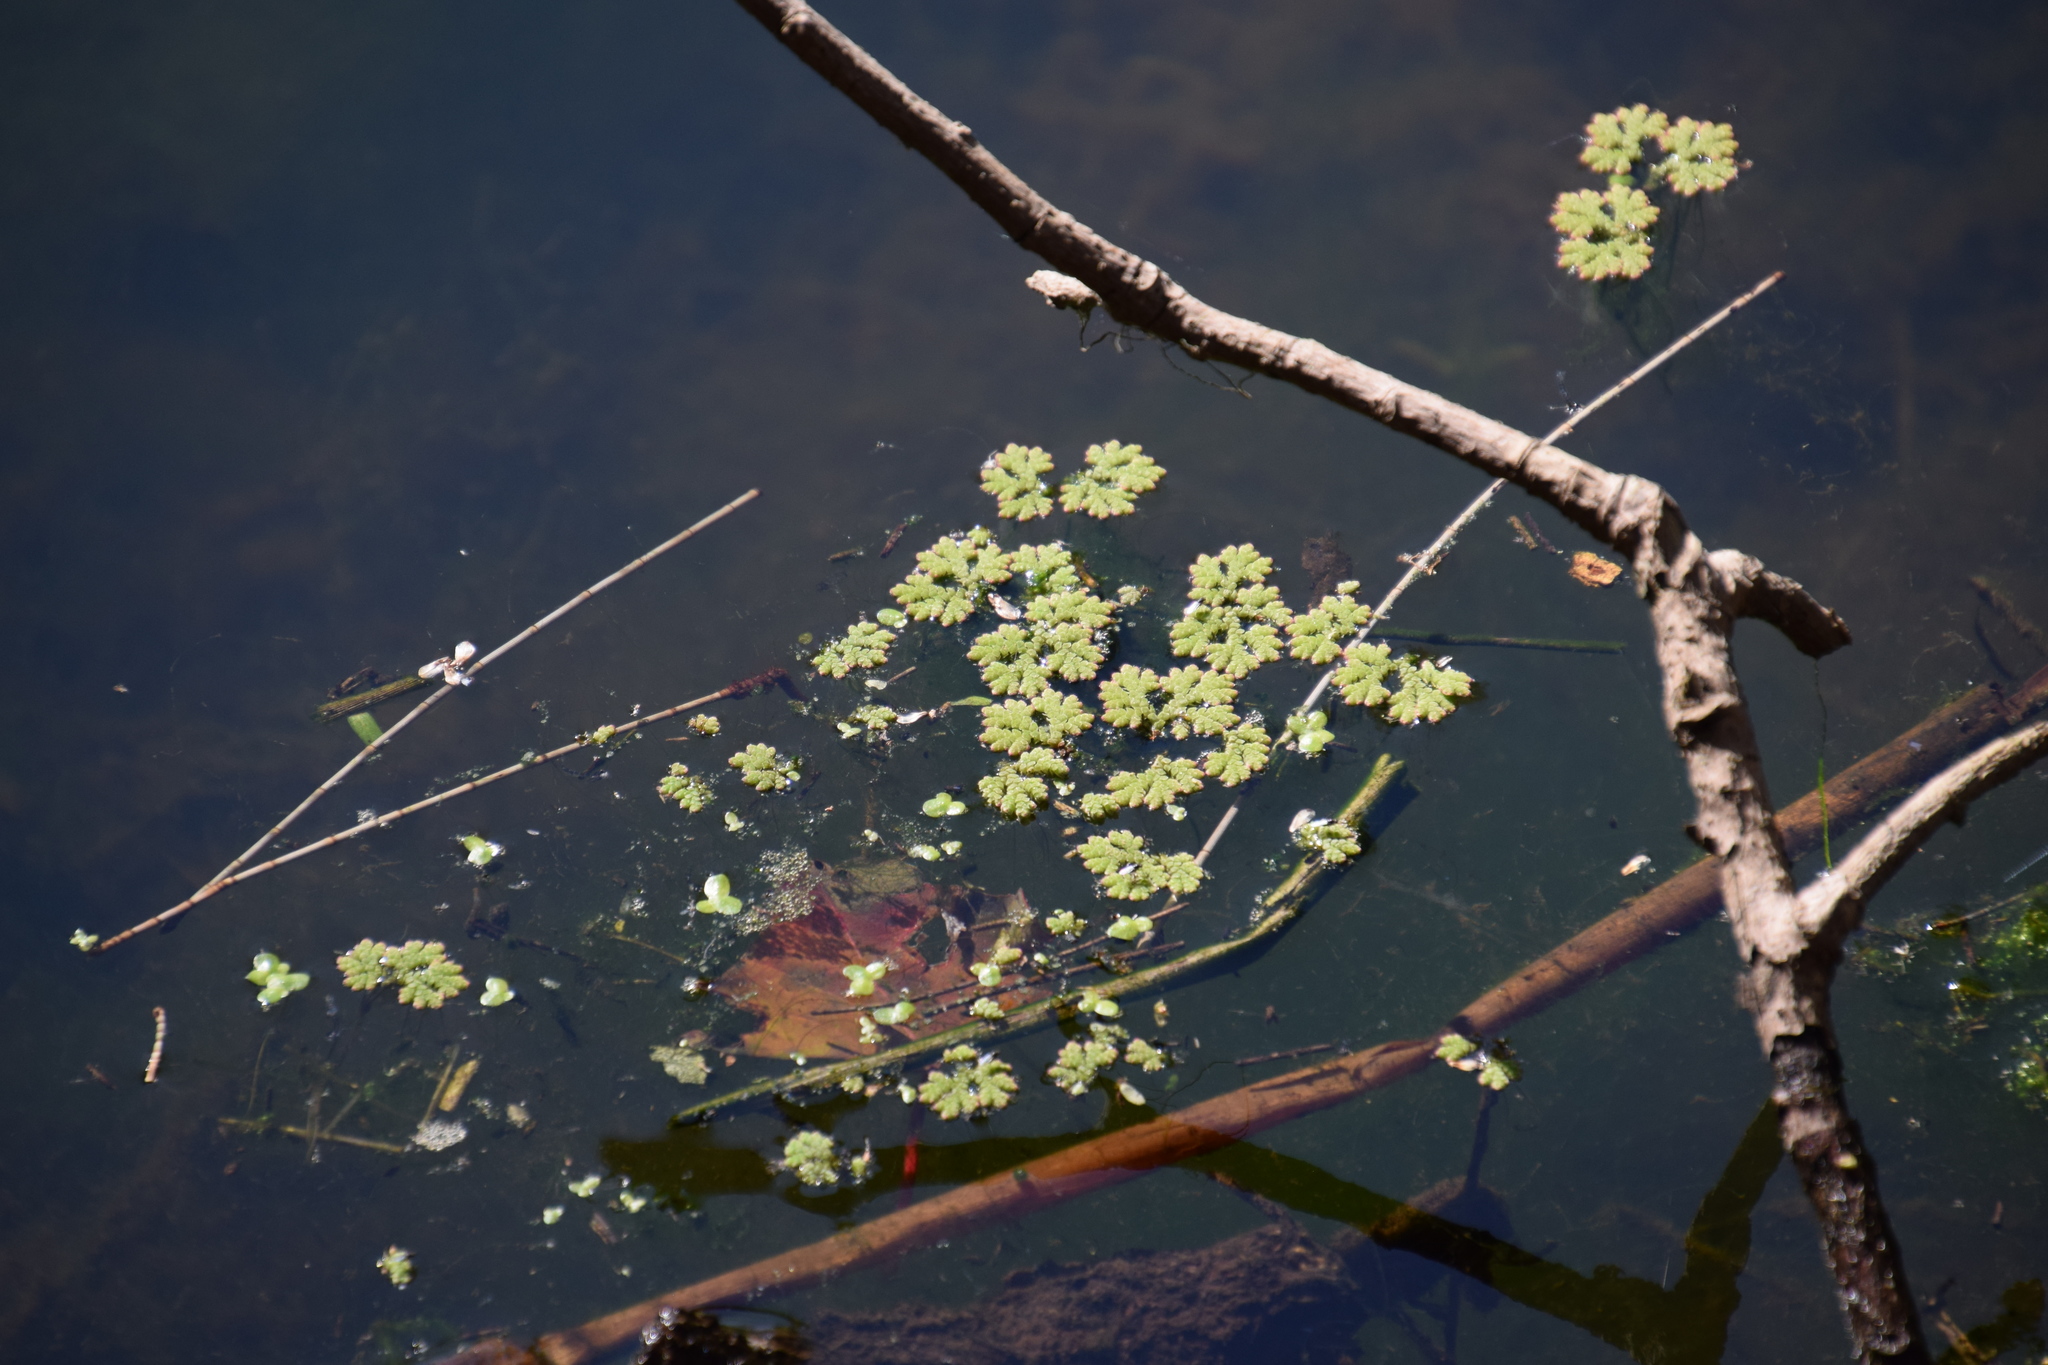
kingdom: Plantae
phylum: Tracheophyta
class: Polypodiopsida
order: Salviniales
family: Salviniaceae
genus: Azolla
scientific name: Azolla rubra
